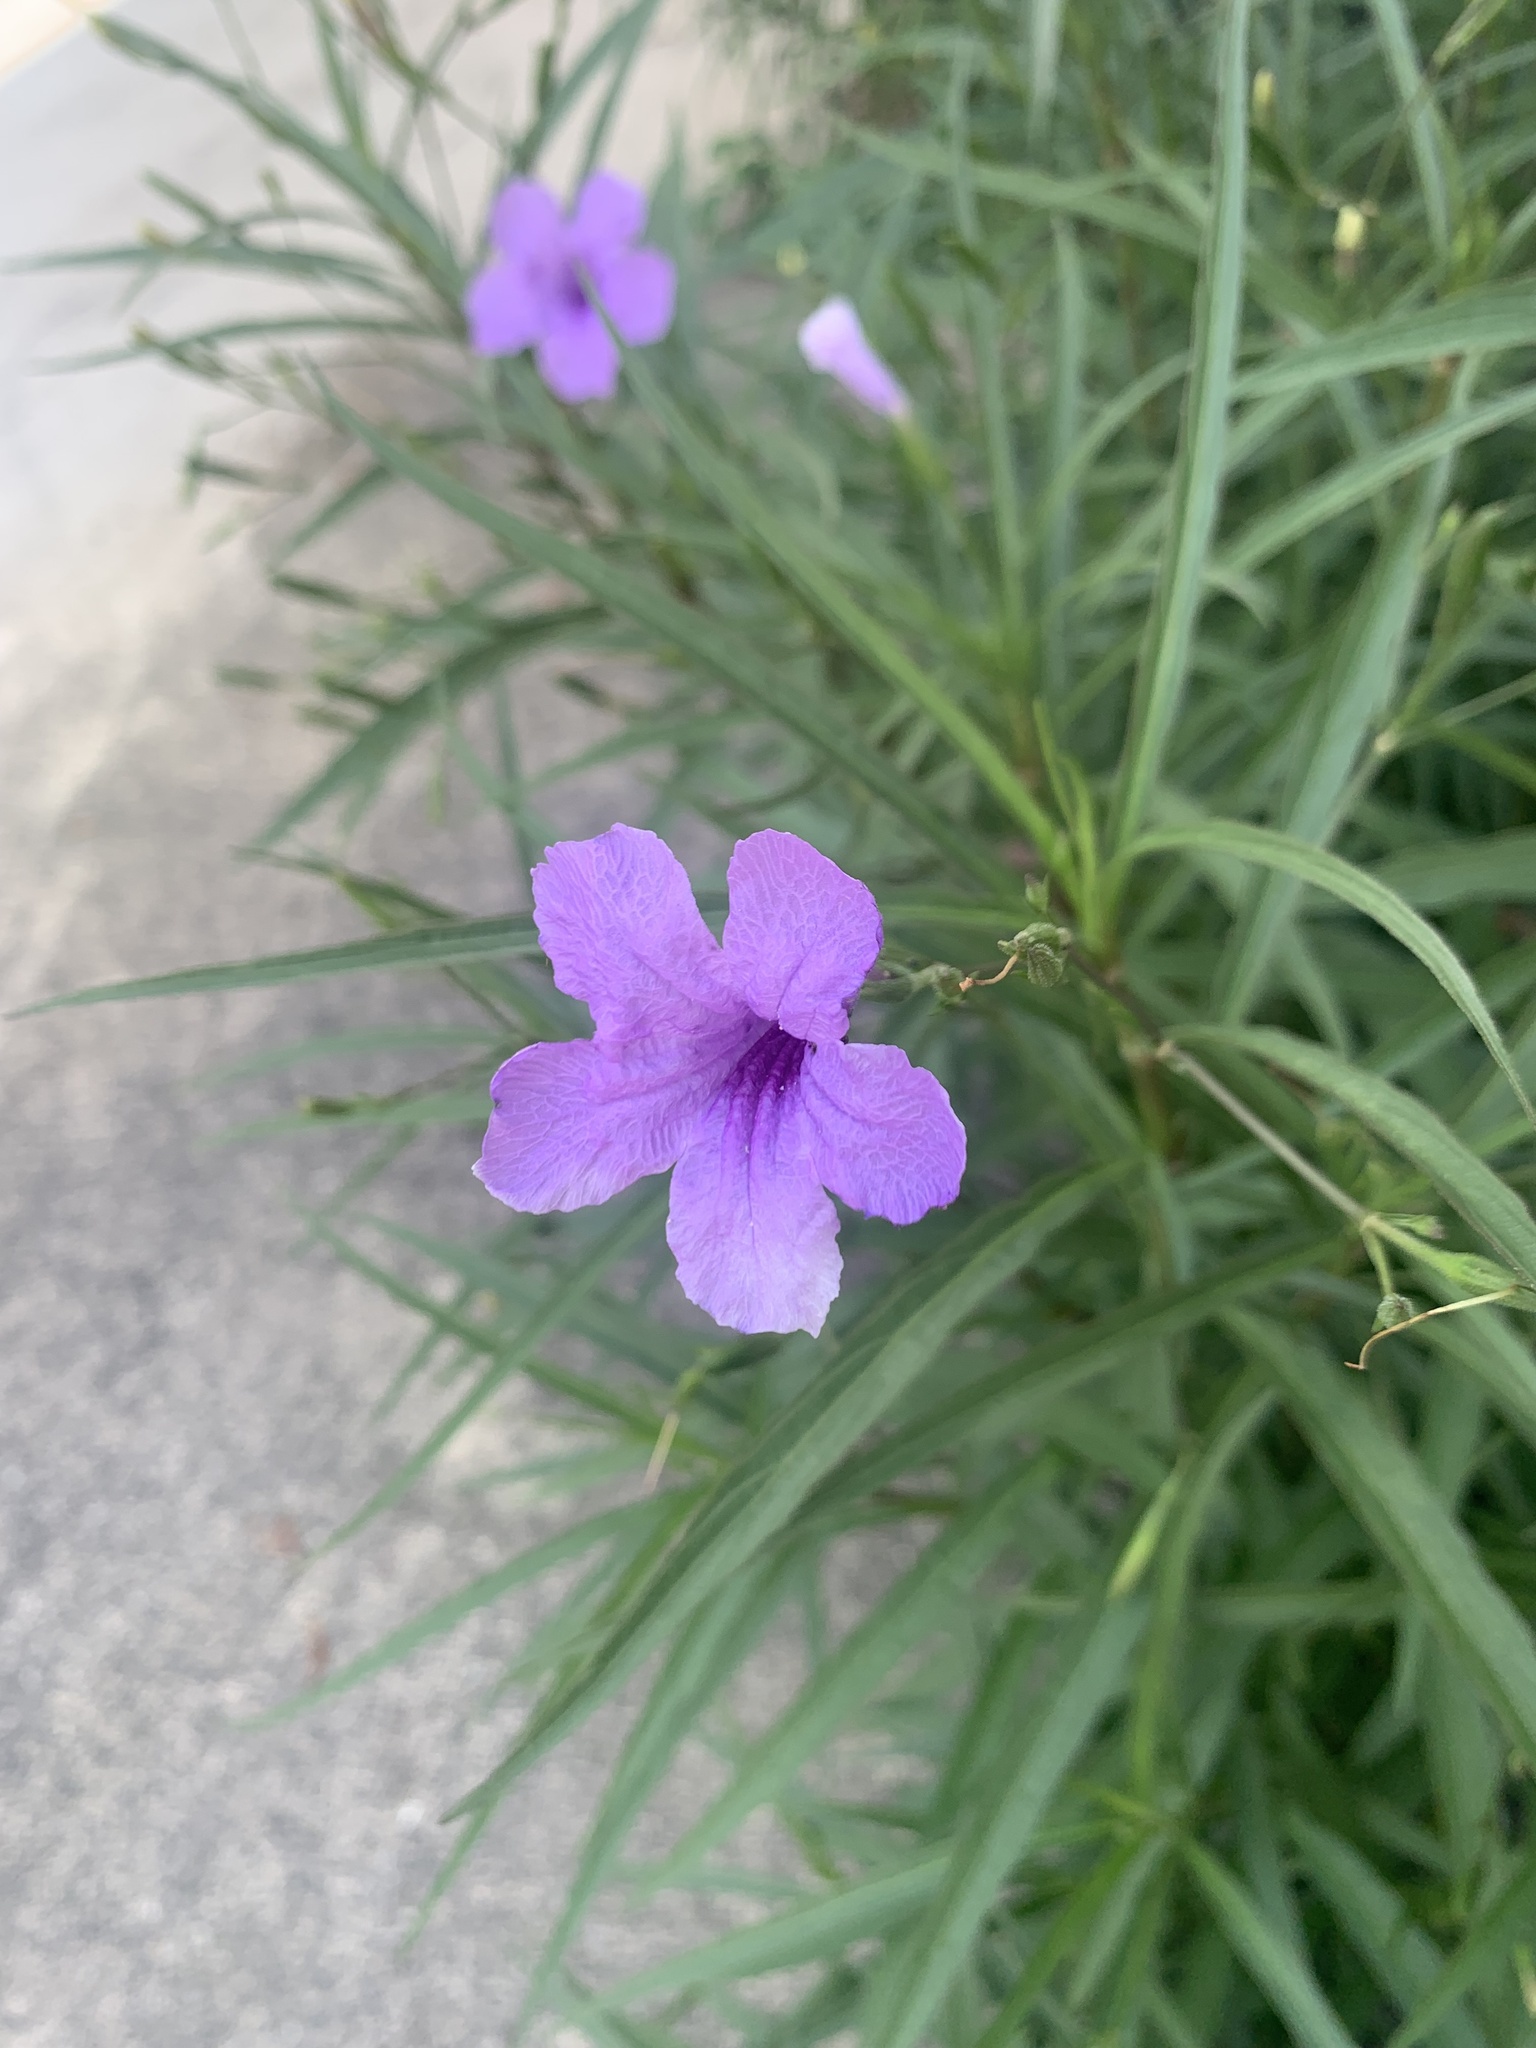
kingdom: Plantae
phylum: Tracheophyta
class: Magnoliopsida
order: Lamiales
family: Acanthaceae
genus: Ruellia
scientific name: Ruellia simplex
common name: Softseed wild petunia
